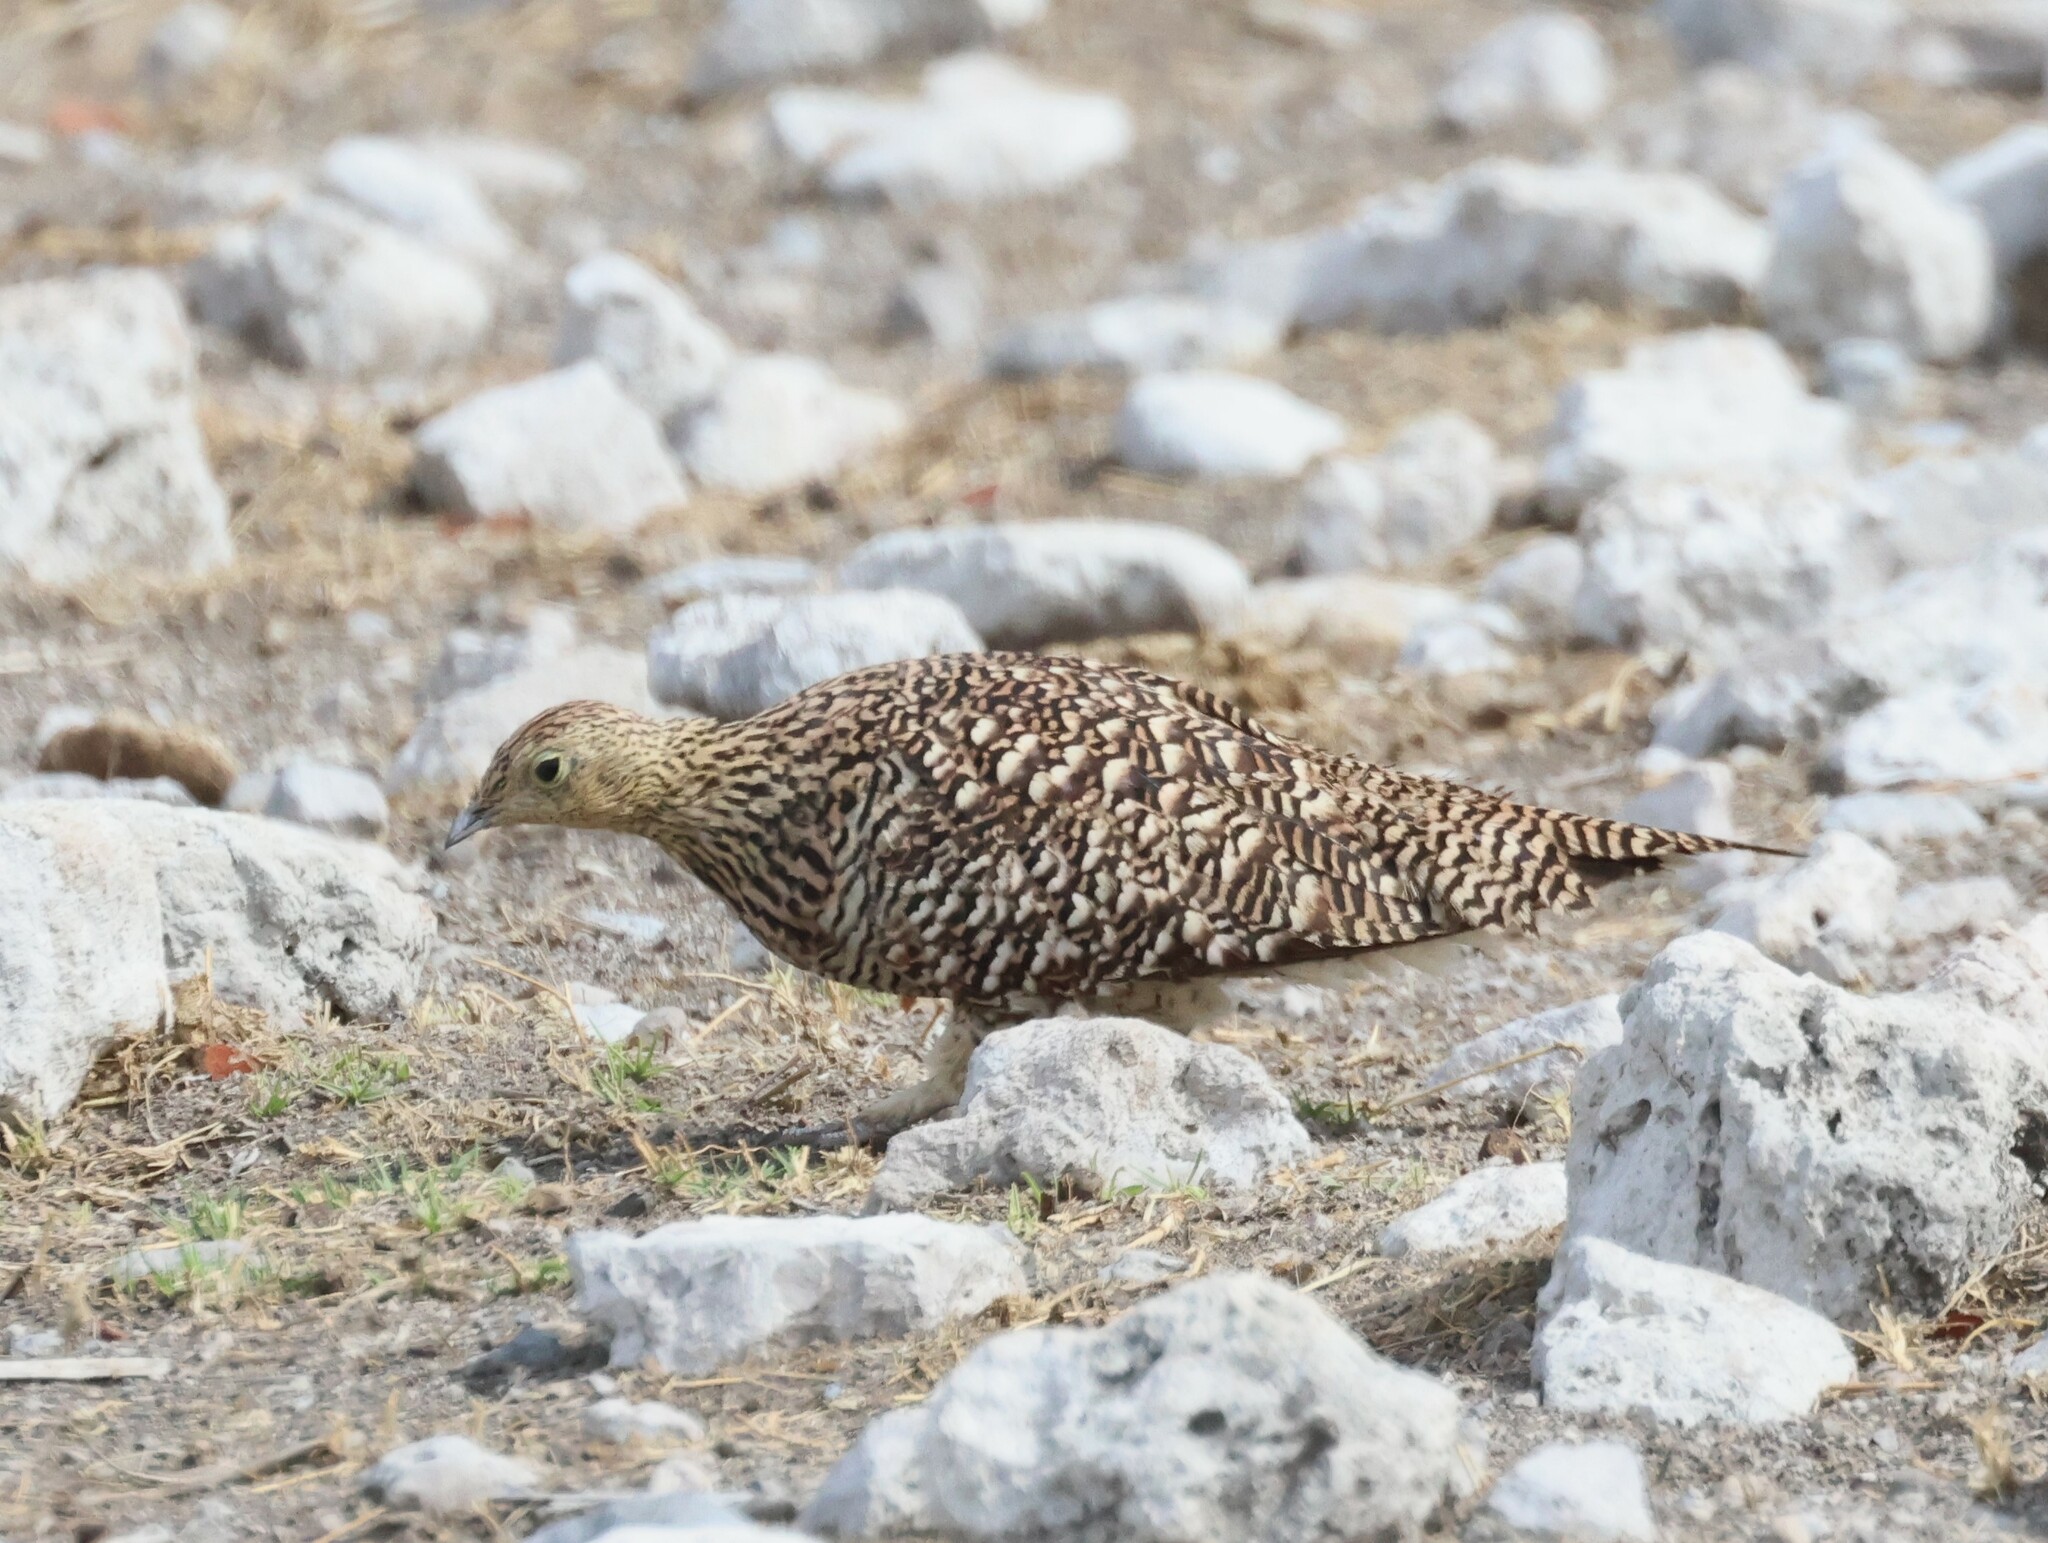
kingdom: Animalia
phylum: Chordata
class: Aves
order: Pteroclidiformes
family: Pteroclididae
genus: Pterocles
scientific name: Pterocles namaqua
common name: Namaqua sandgrouse
